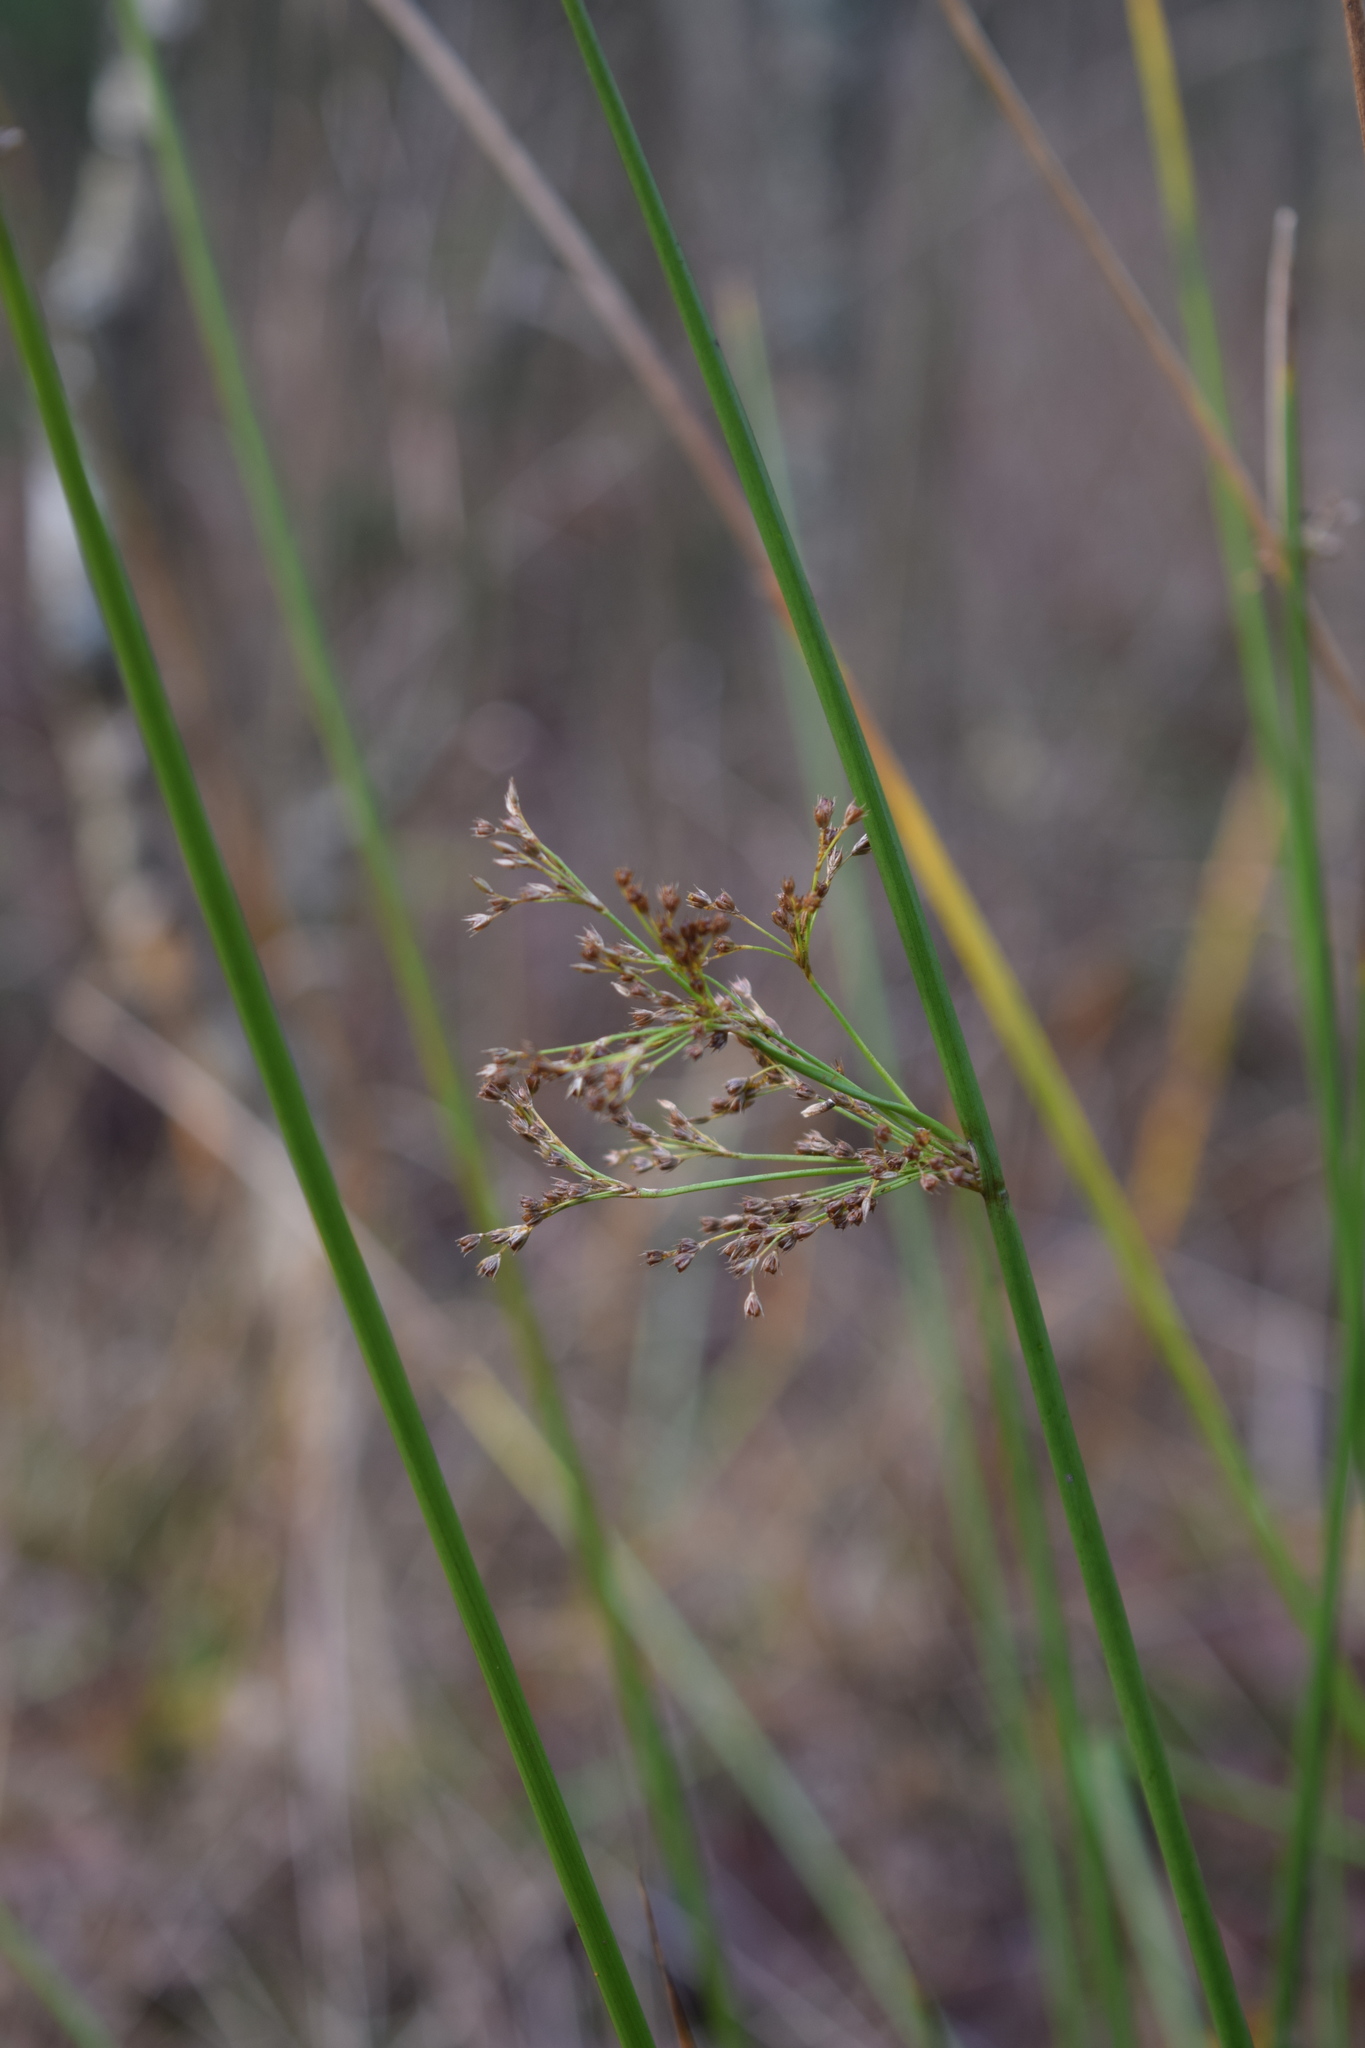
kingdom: Plantae
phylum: Tracheophyta
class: Liliopsida
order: Poales
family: Juncaceae
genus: Juncus
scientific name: Juncus effusus
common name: Soft rush
